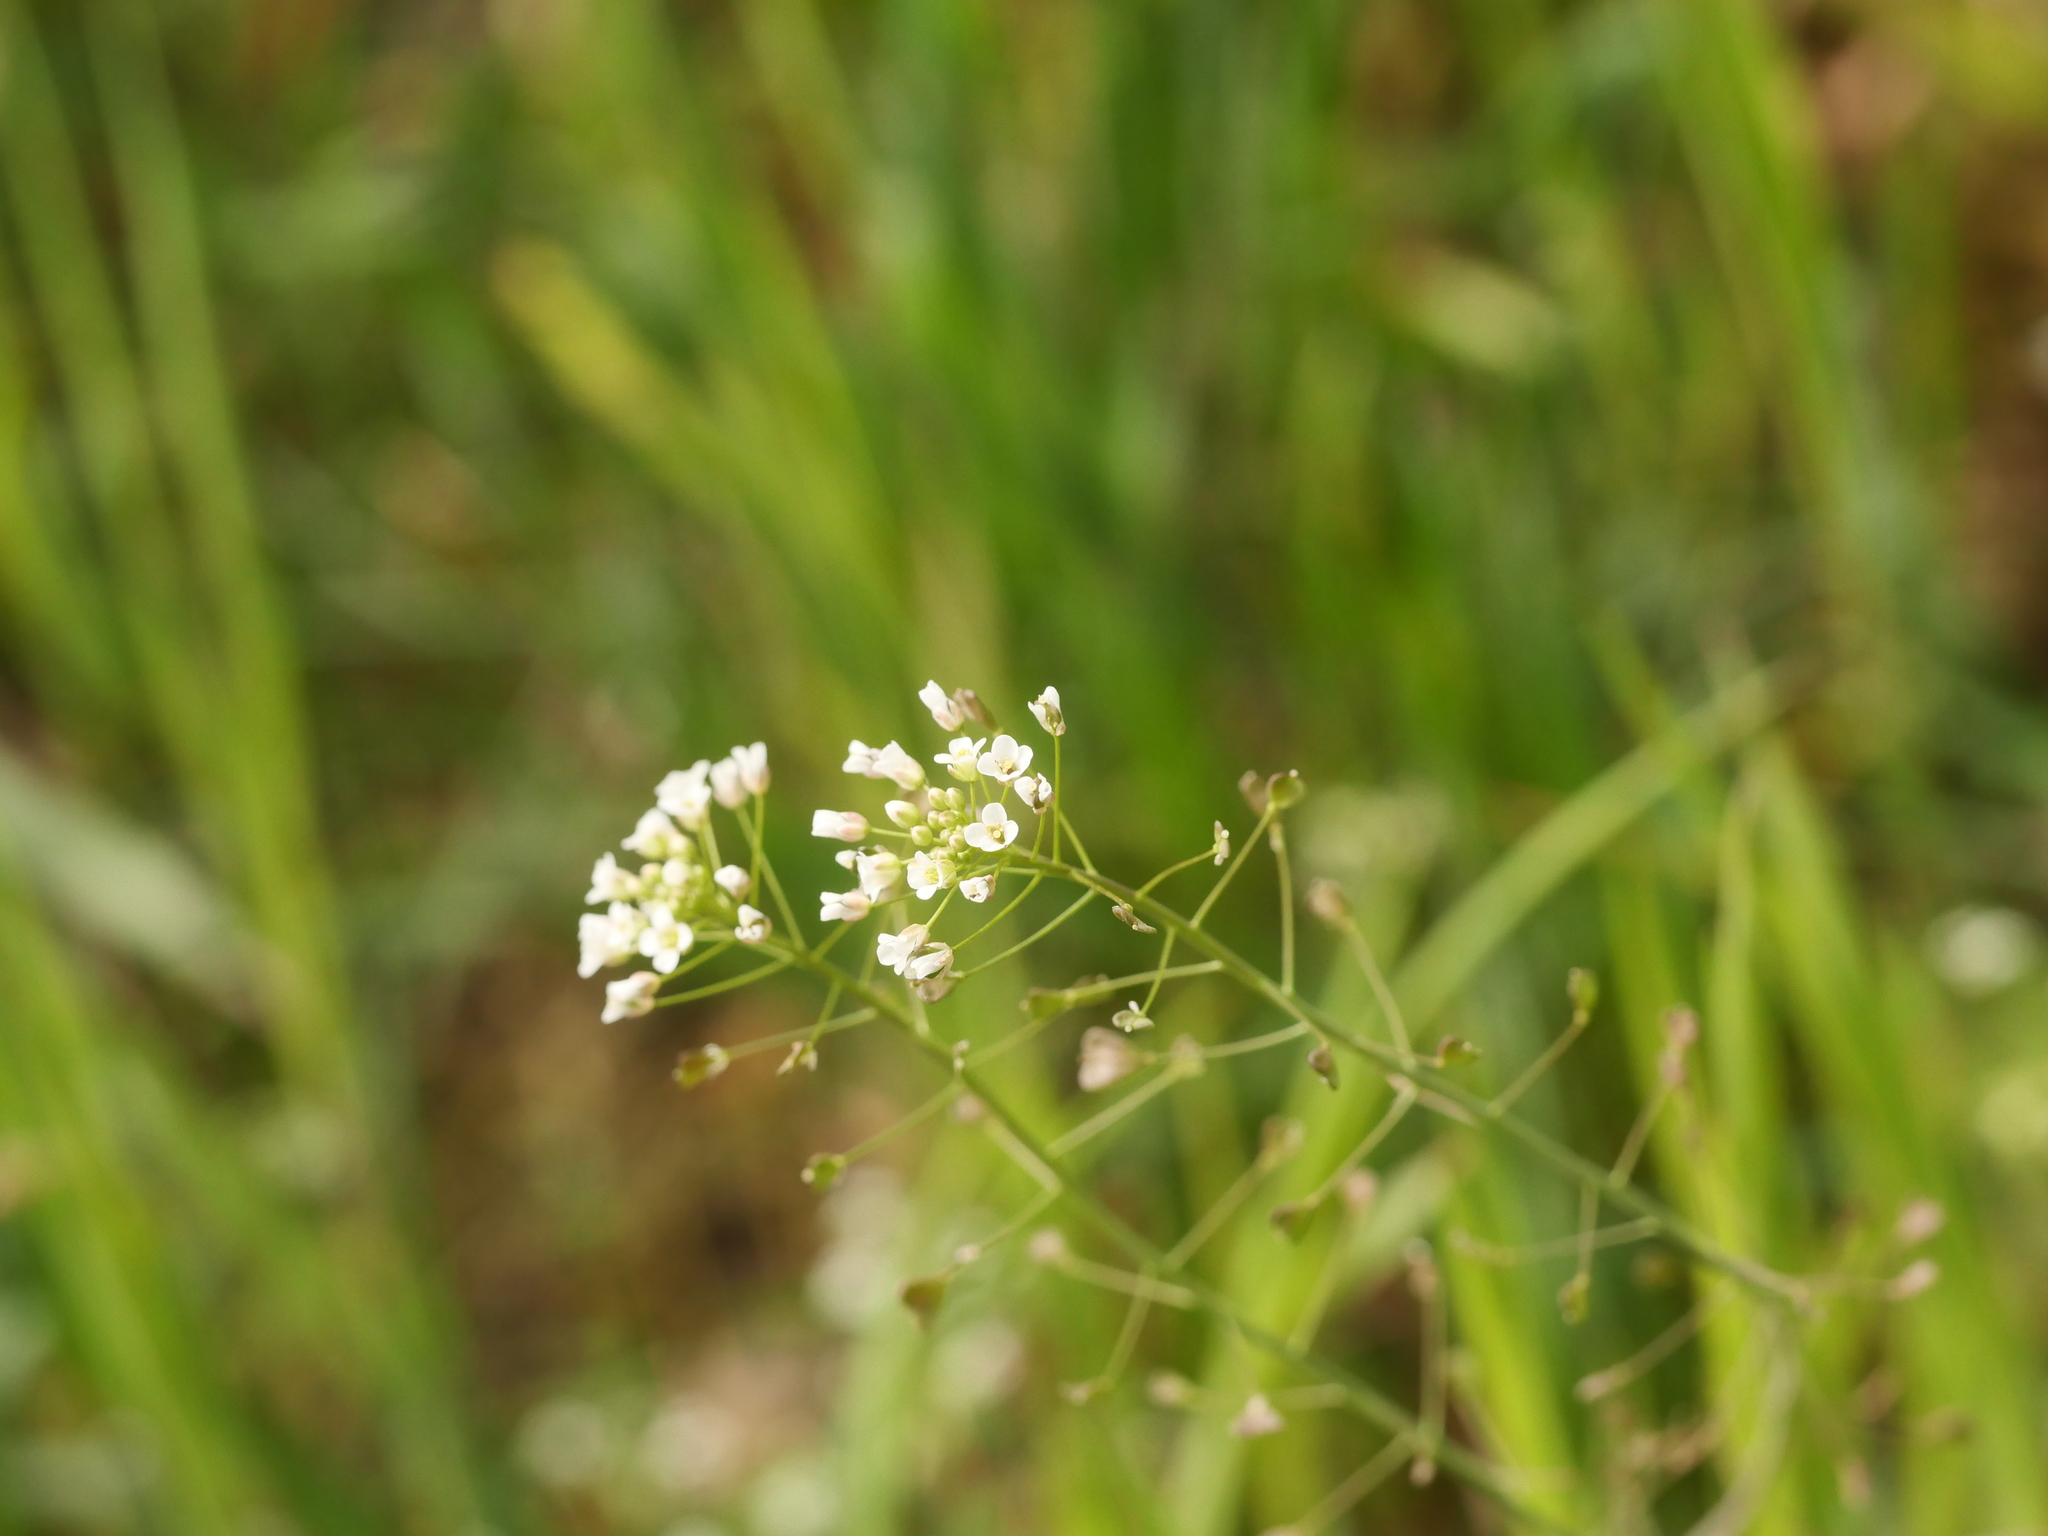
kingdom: Plantae
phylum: Tracheophyta
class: Magnoliopsida
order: Brassicales
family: Brassicaceae
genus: Capsella
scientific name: Capsella bursa-pastoris
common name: Shepherd's purse
